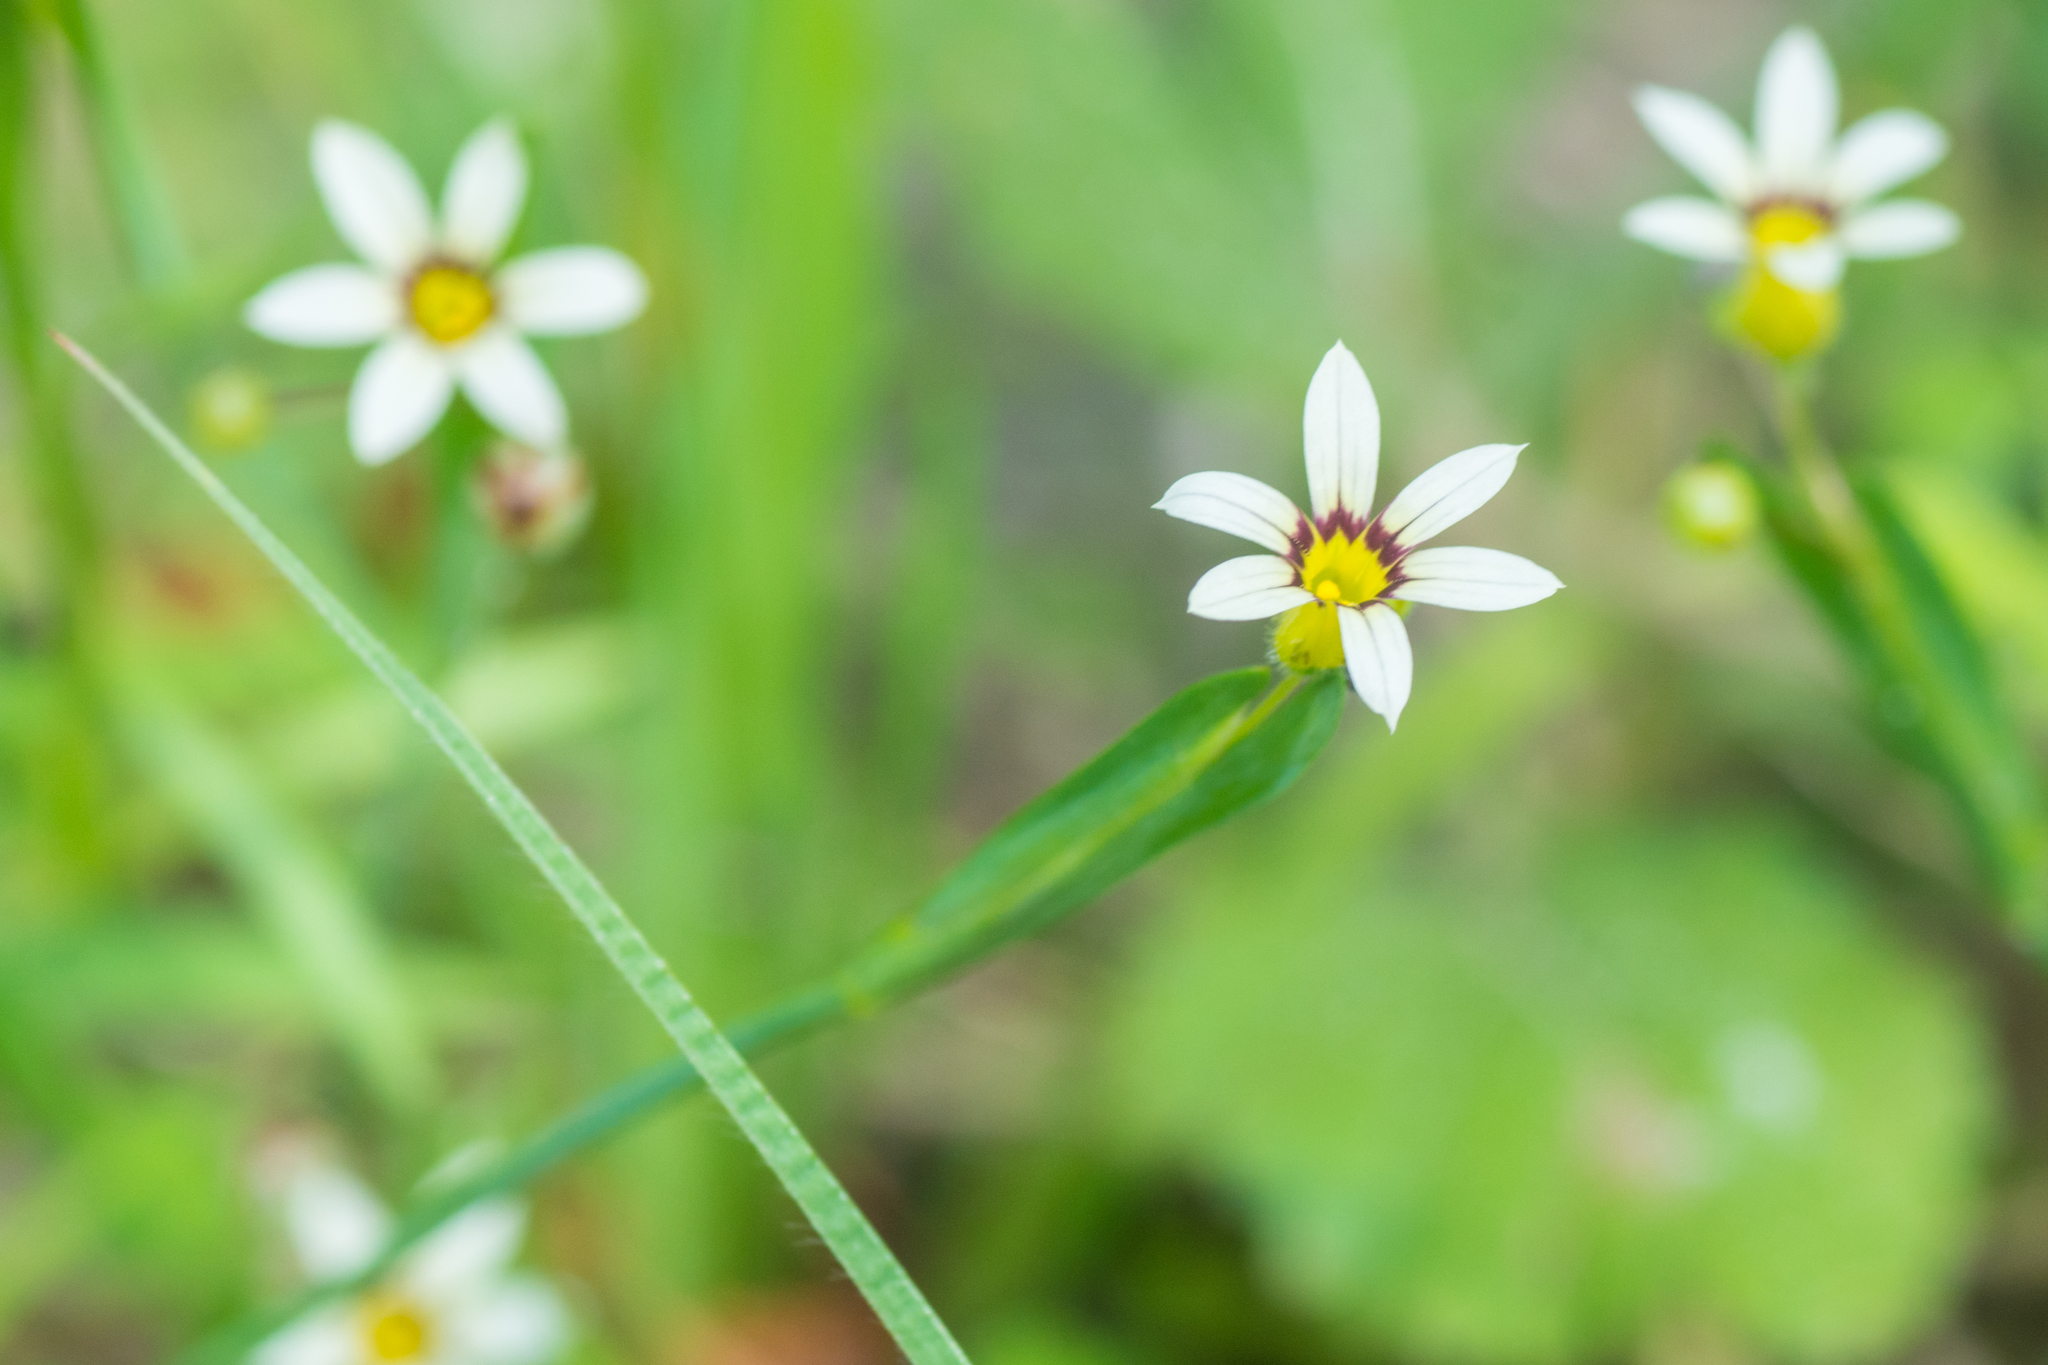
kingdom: Plantae
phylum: Tracheophyta
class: Liliopsida
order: Asparagales
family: Iridaceae
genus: Sisyrinchium
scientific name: Sisyrinchium micranthum
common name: Bermuda pigroot
